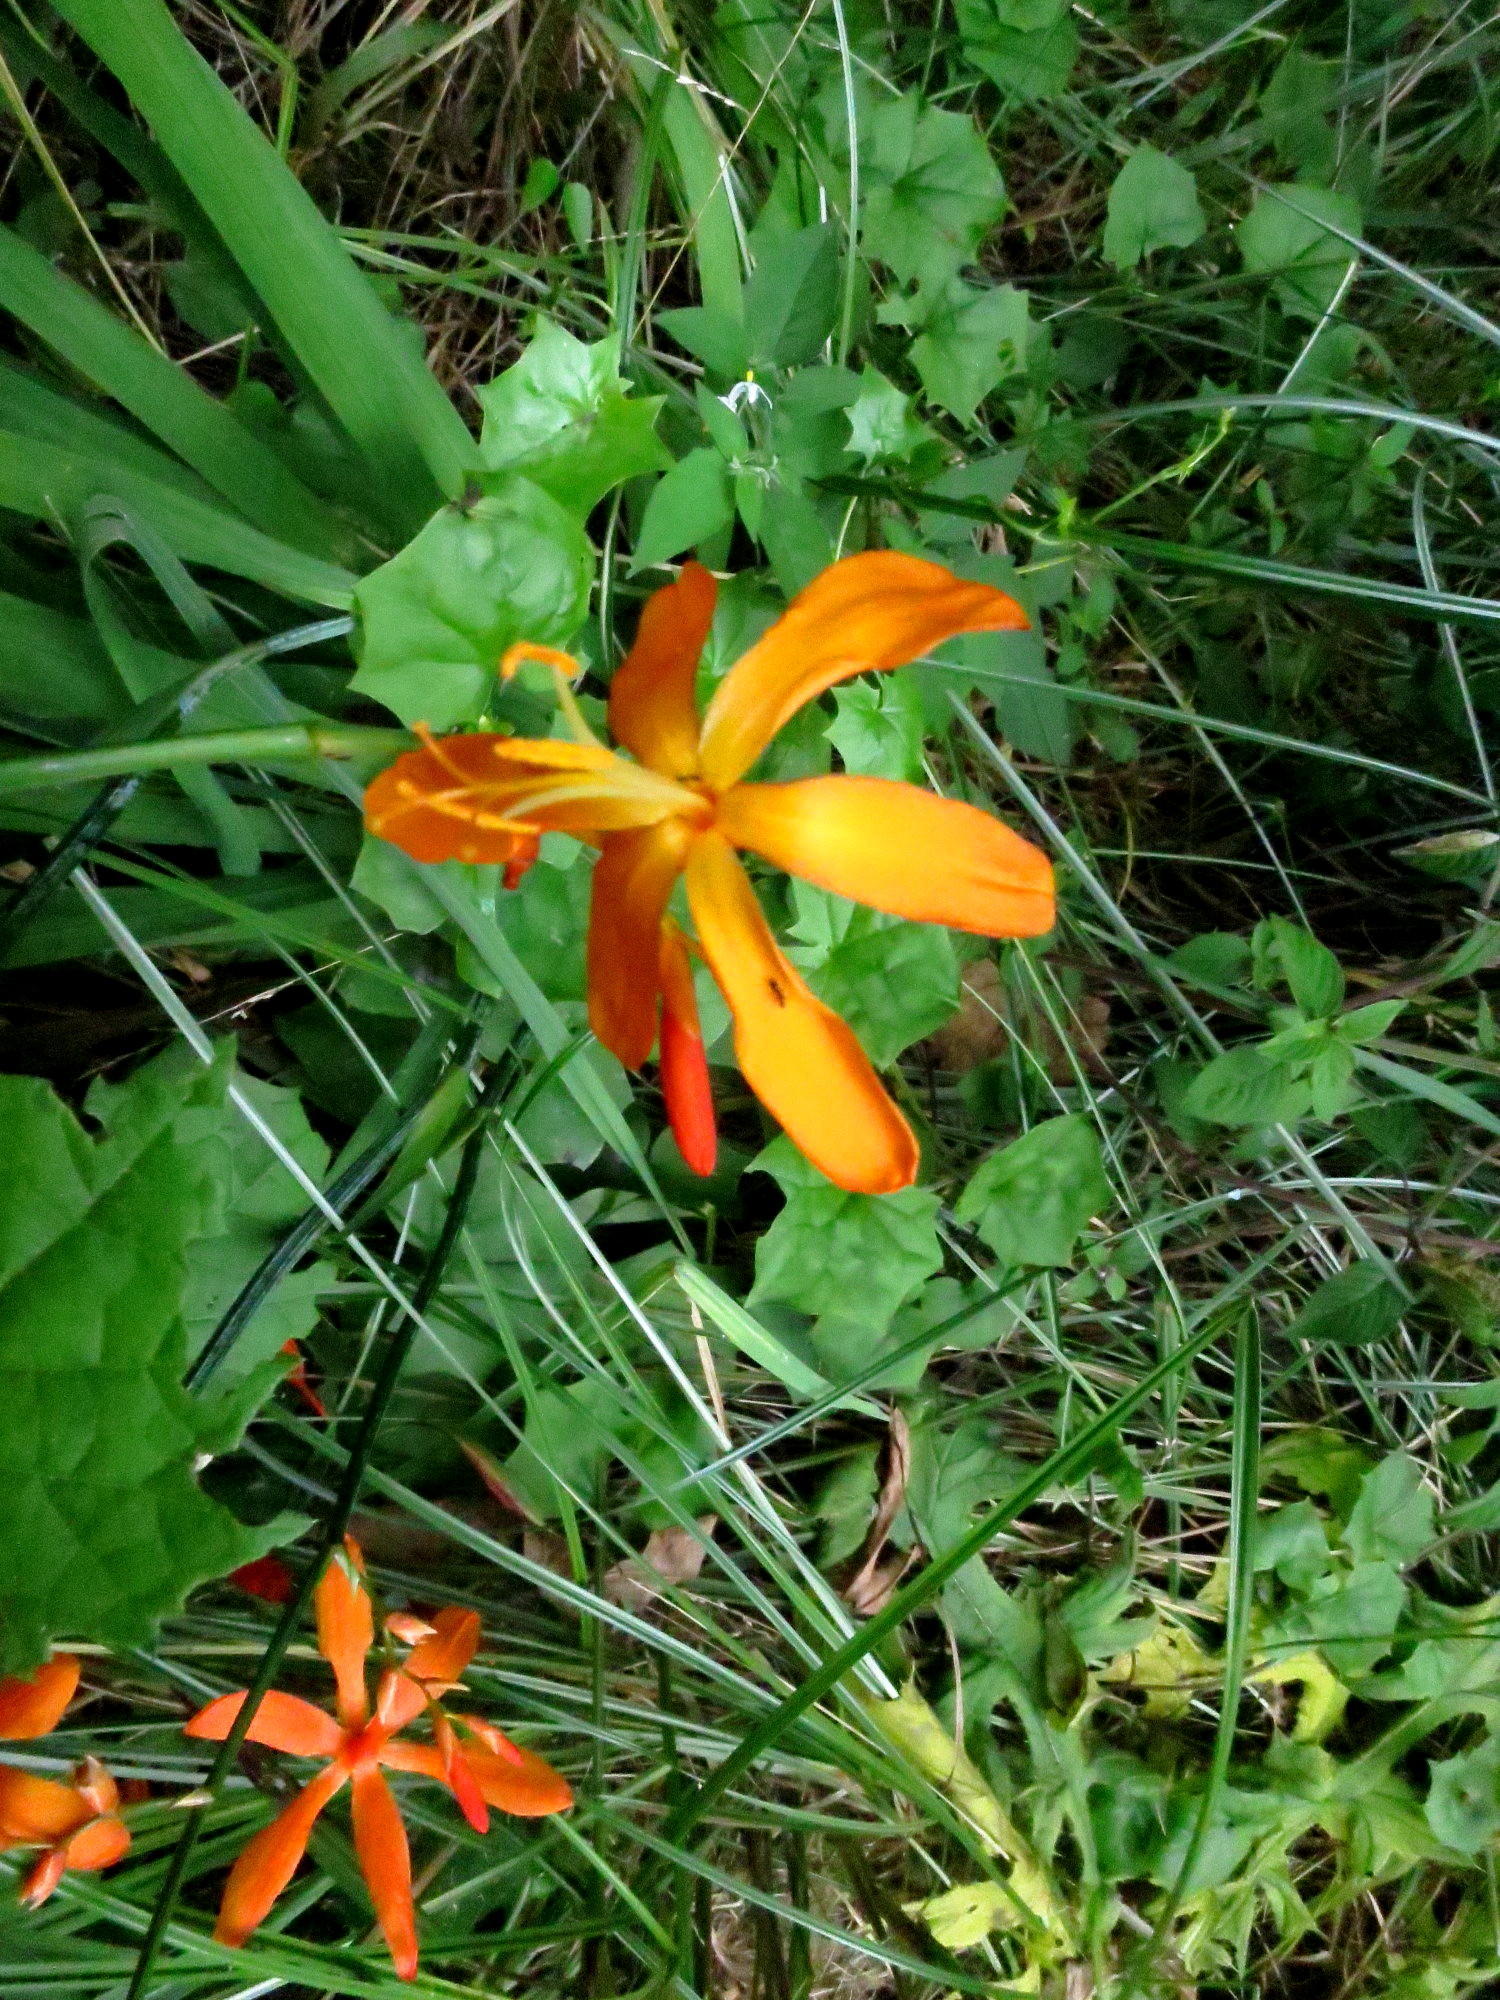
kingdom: Plantae
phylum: Tracheophyta
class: Liliopsida
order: Asparagales
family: Iridaceae
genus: Crocosmia
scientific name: Crocosmia aurea
